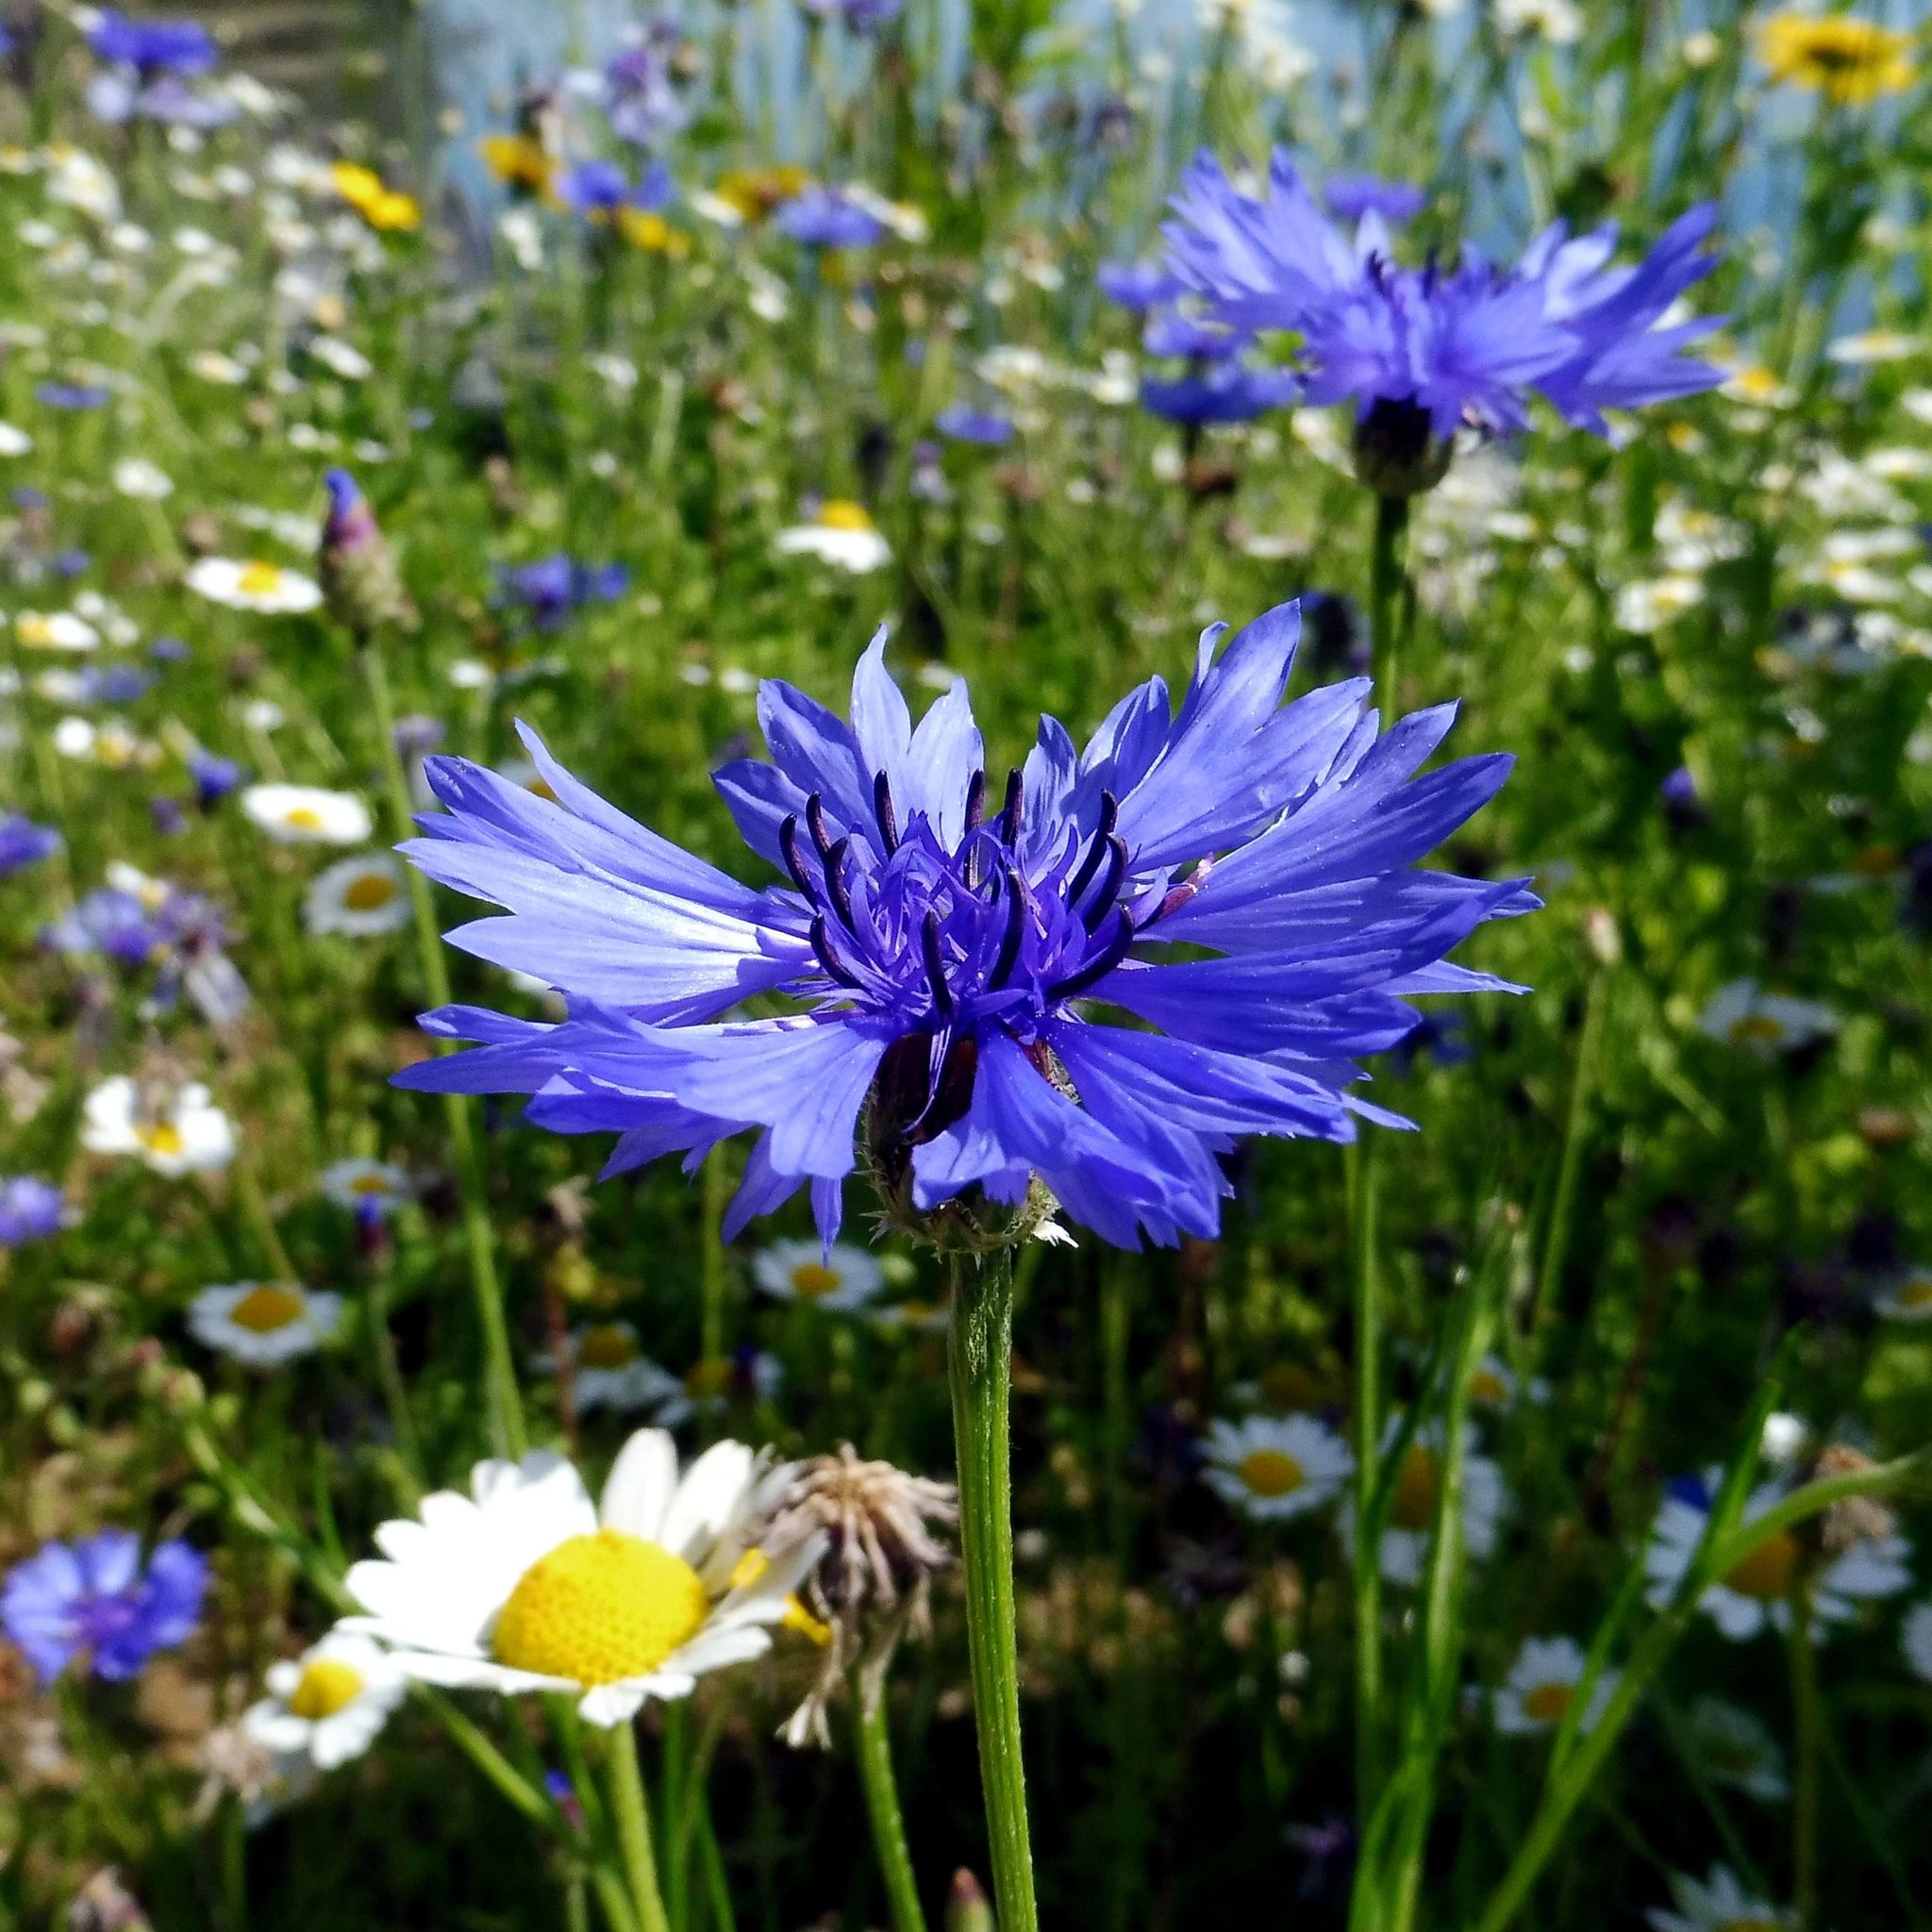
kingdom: Plantae
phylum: Tracheophyta
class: Magnoliopsida
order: Asterales
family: Asteraceae
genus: Centaurea
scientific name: Centaurea cyanus
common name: Cornflower
